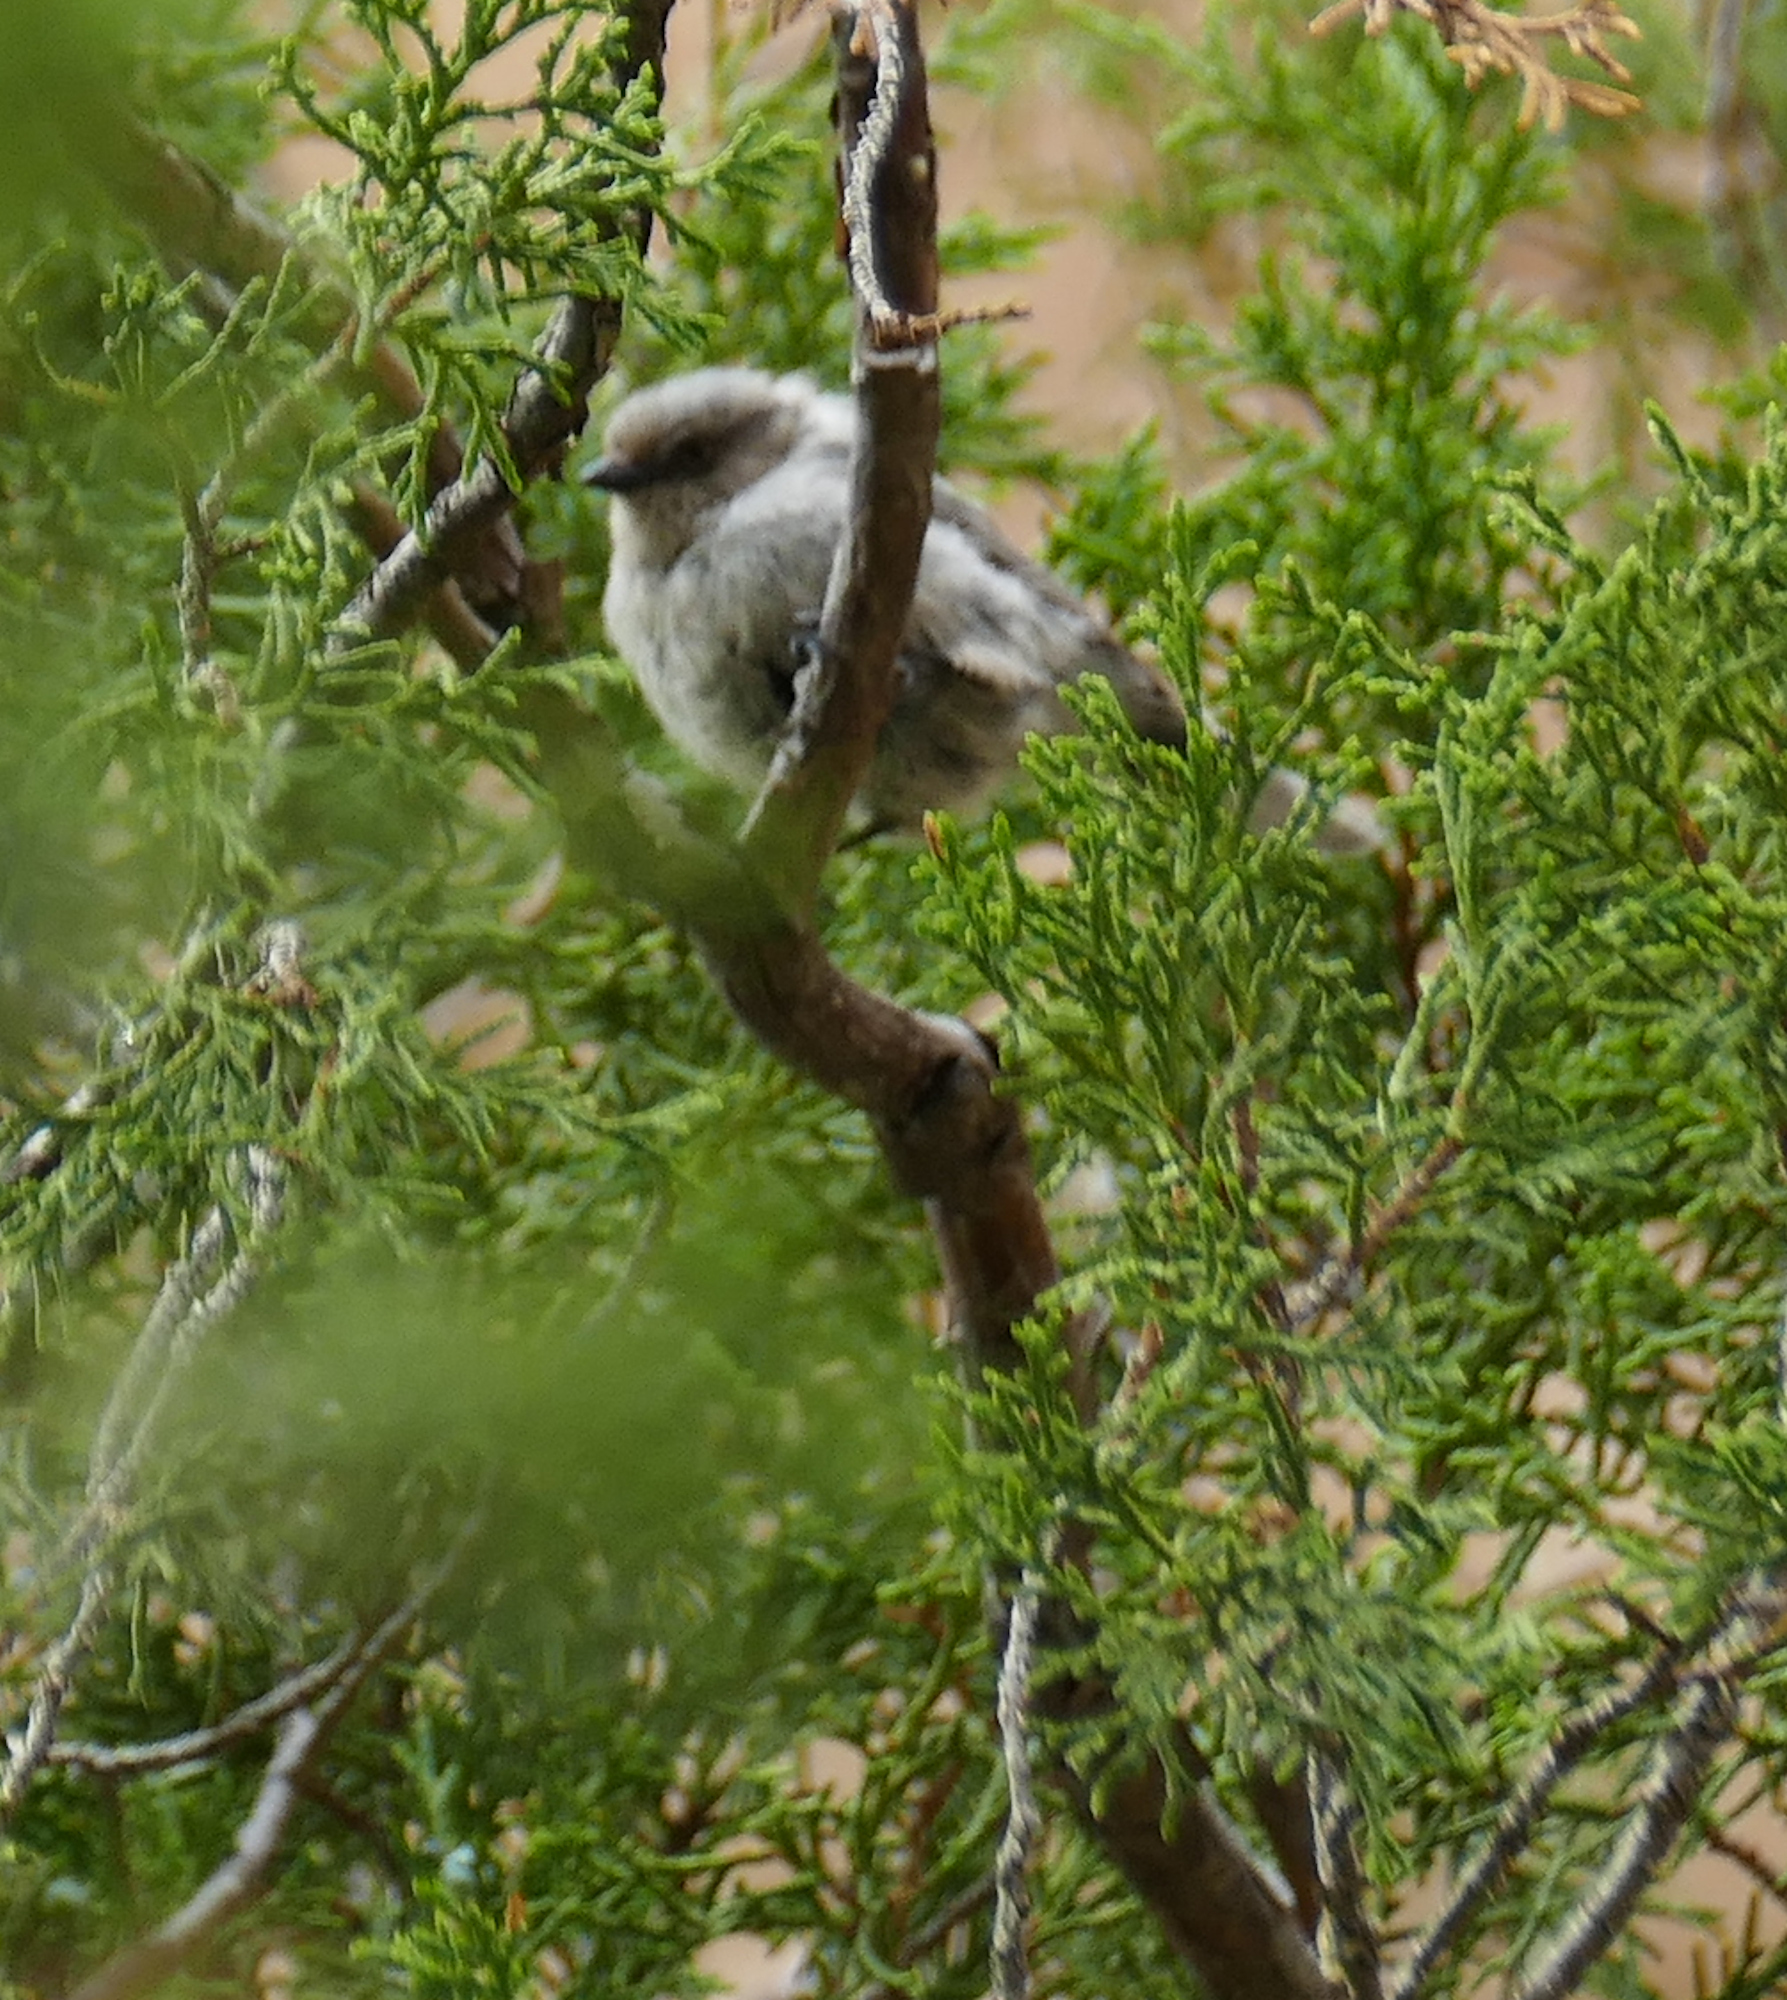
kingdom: Animalia
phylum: Chordata
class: Aves
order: Passeriformes
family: Aegithalidae
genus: Psaltriparus
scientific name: Psaltriparus minimus
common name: American bushtit
